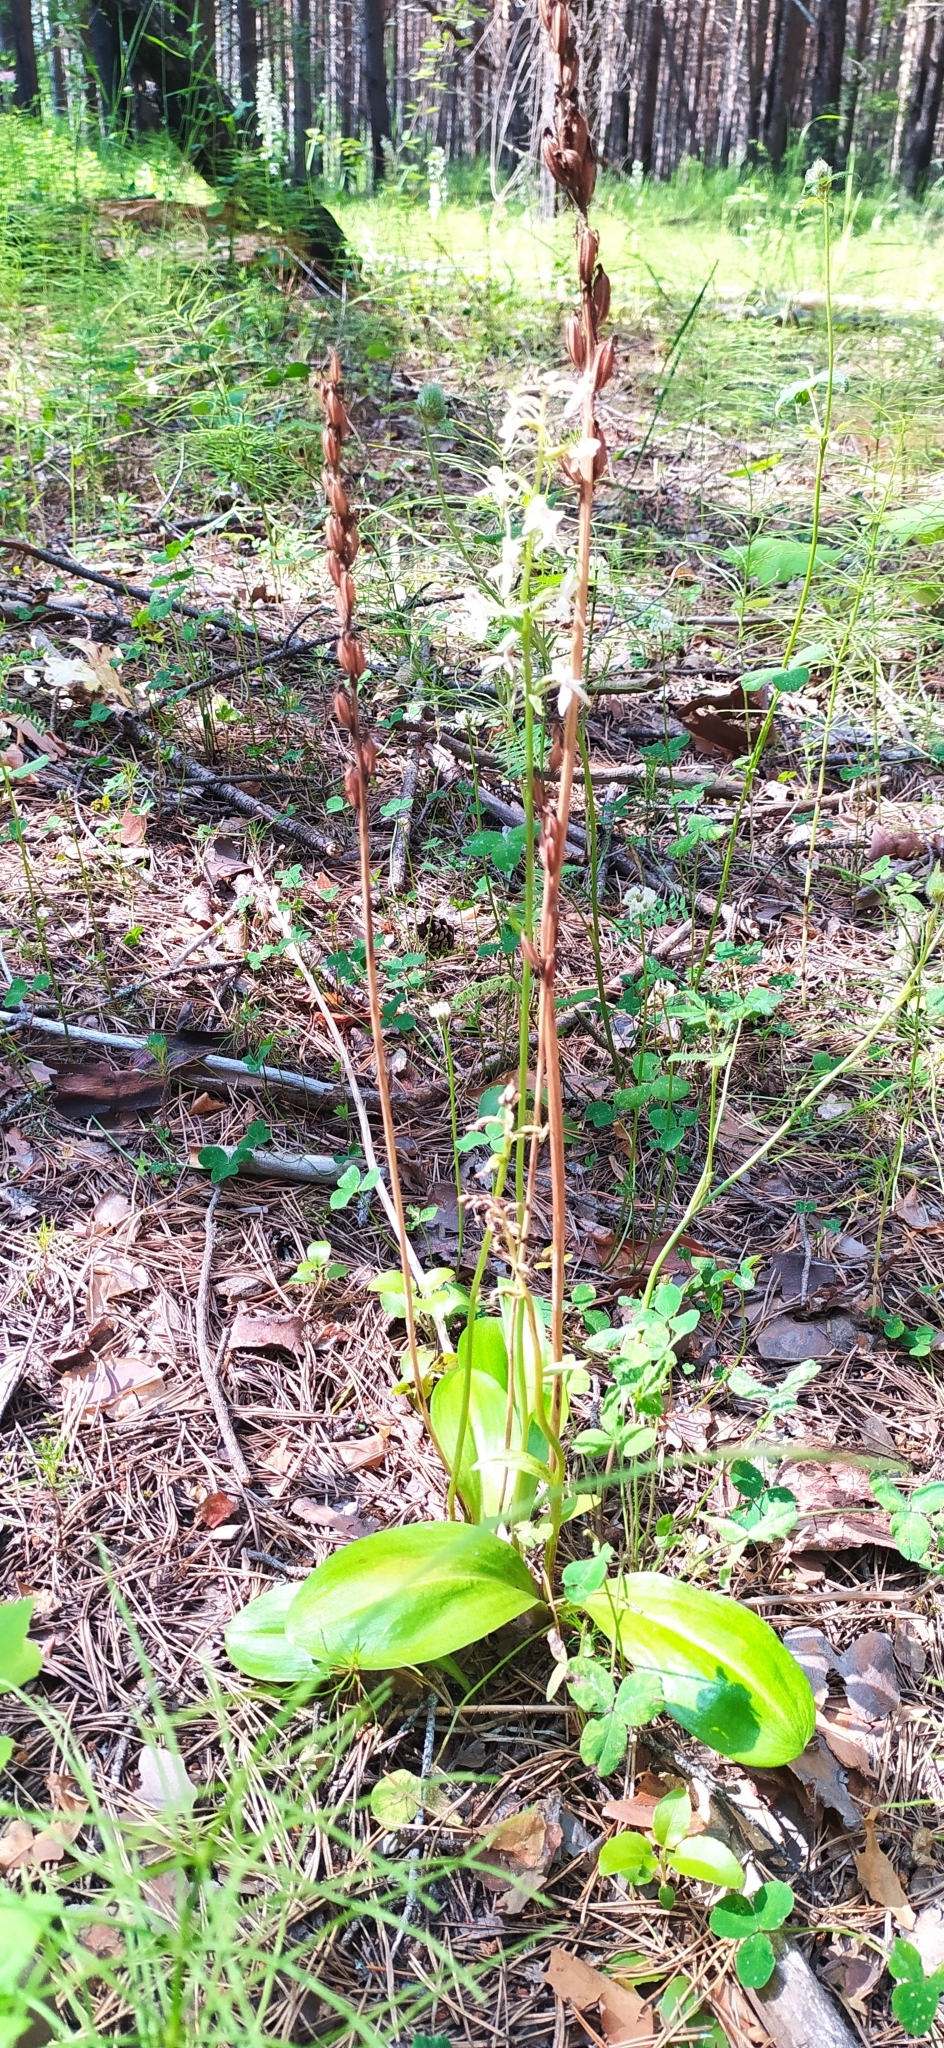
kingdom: Plantae
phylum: Tracheophyta
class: Liliopsida
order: Asparagales
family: Orchidaceae
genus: Platanthera
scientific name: Platanthera bifolia
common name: Lesser butterfly-orchid
